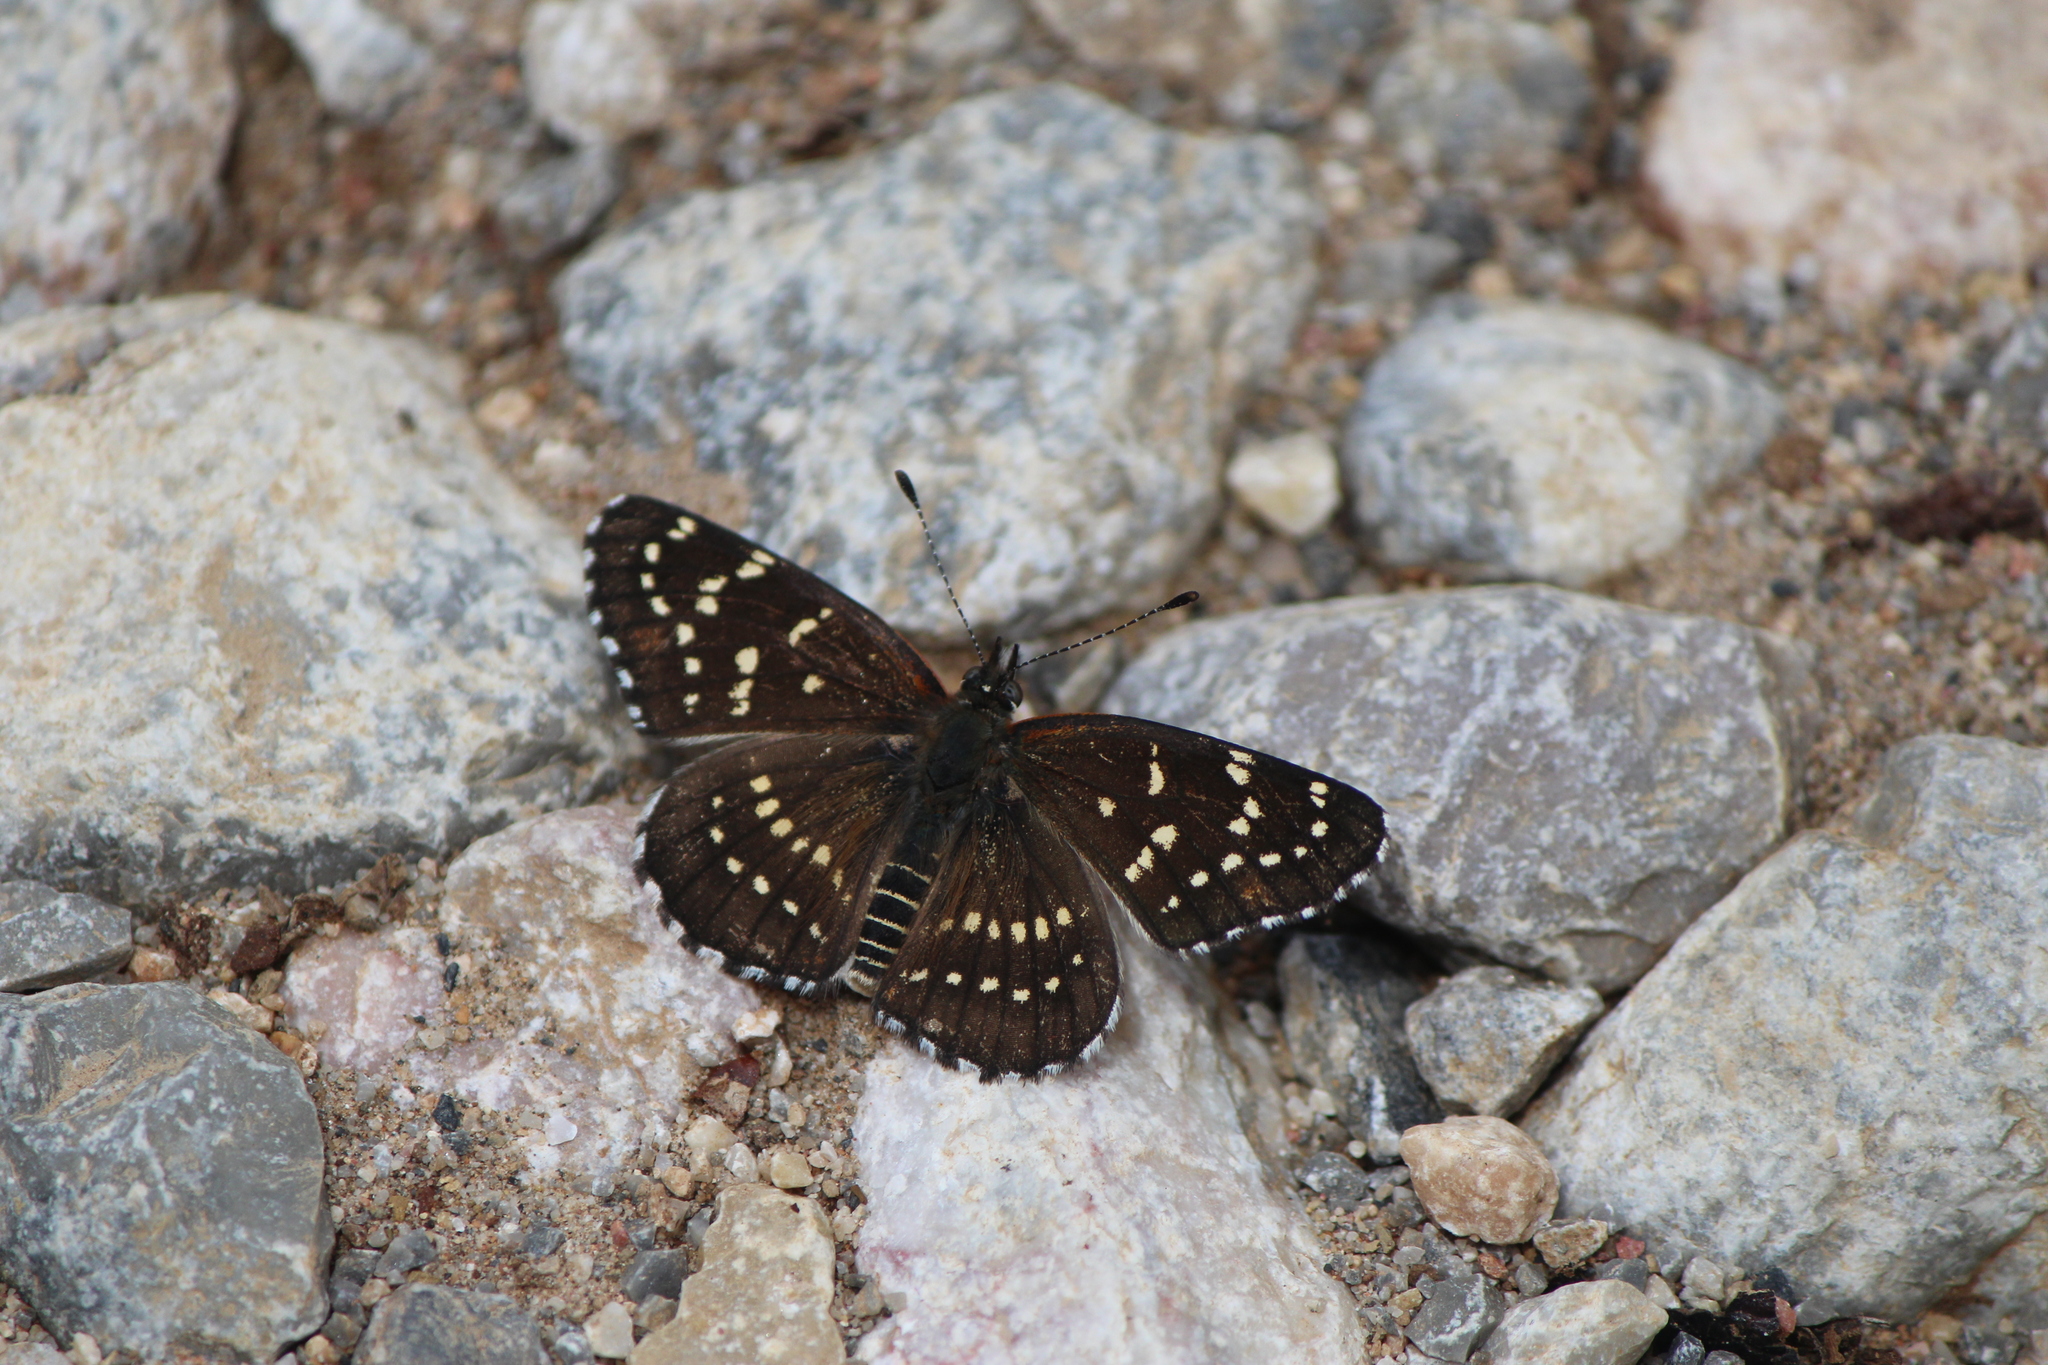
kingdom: Animalia
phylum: Arthropoda
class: Insecta
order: Lepidoptera
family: Nymphalidae
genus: Thessalia
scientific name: Thessalia leanira
